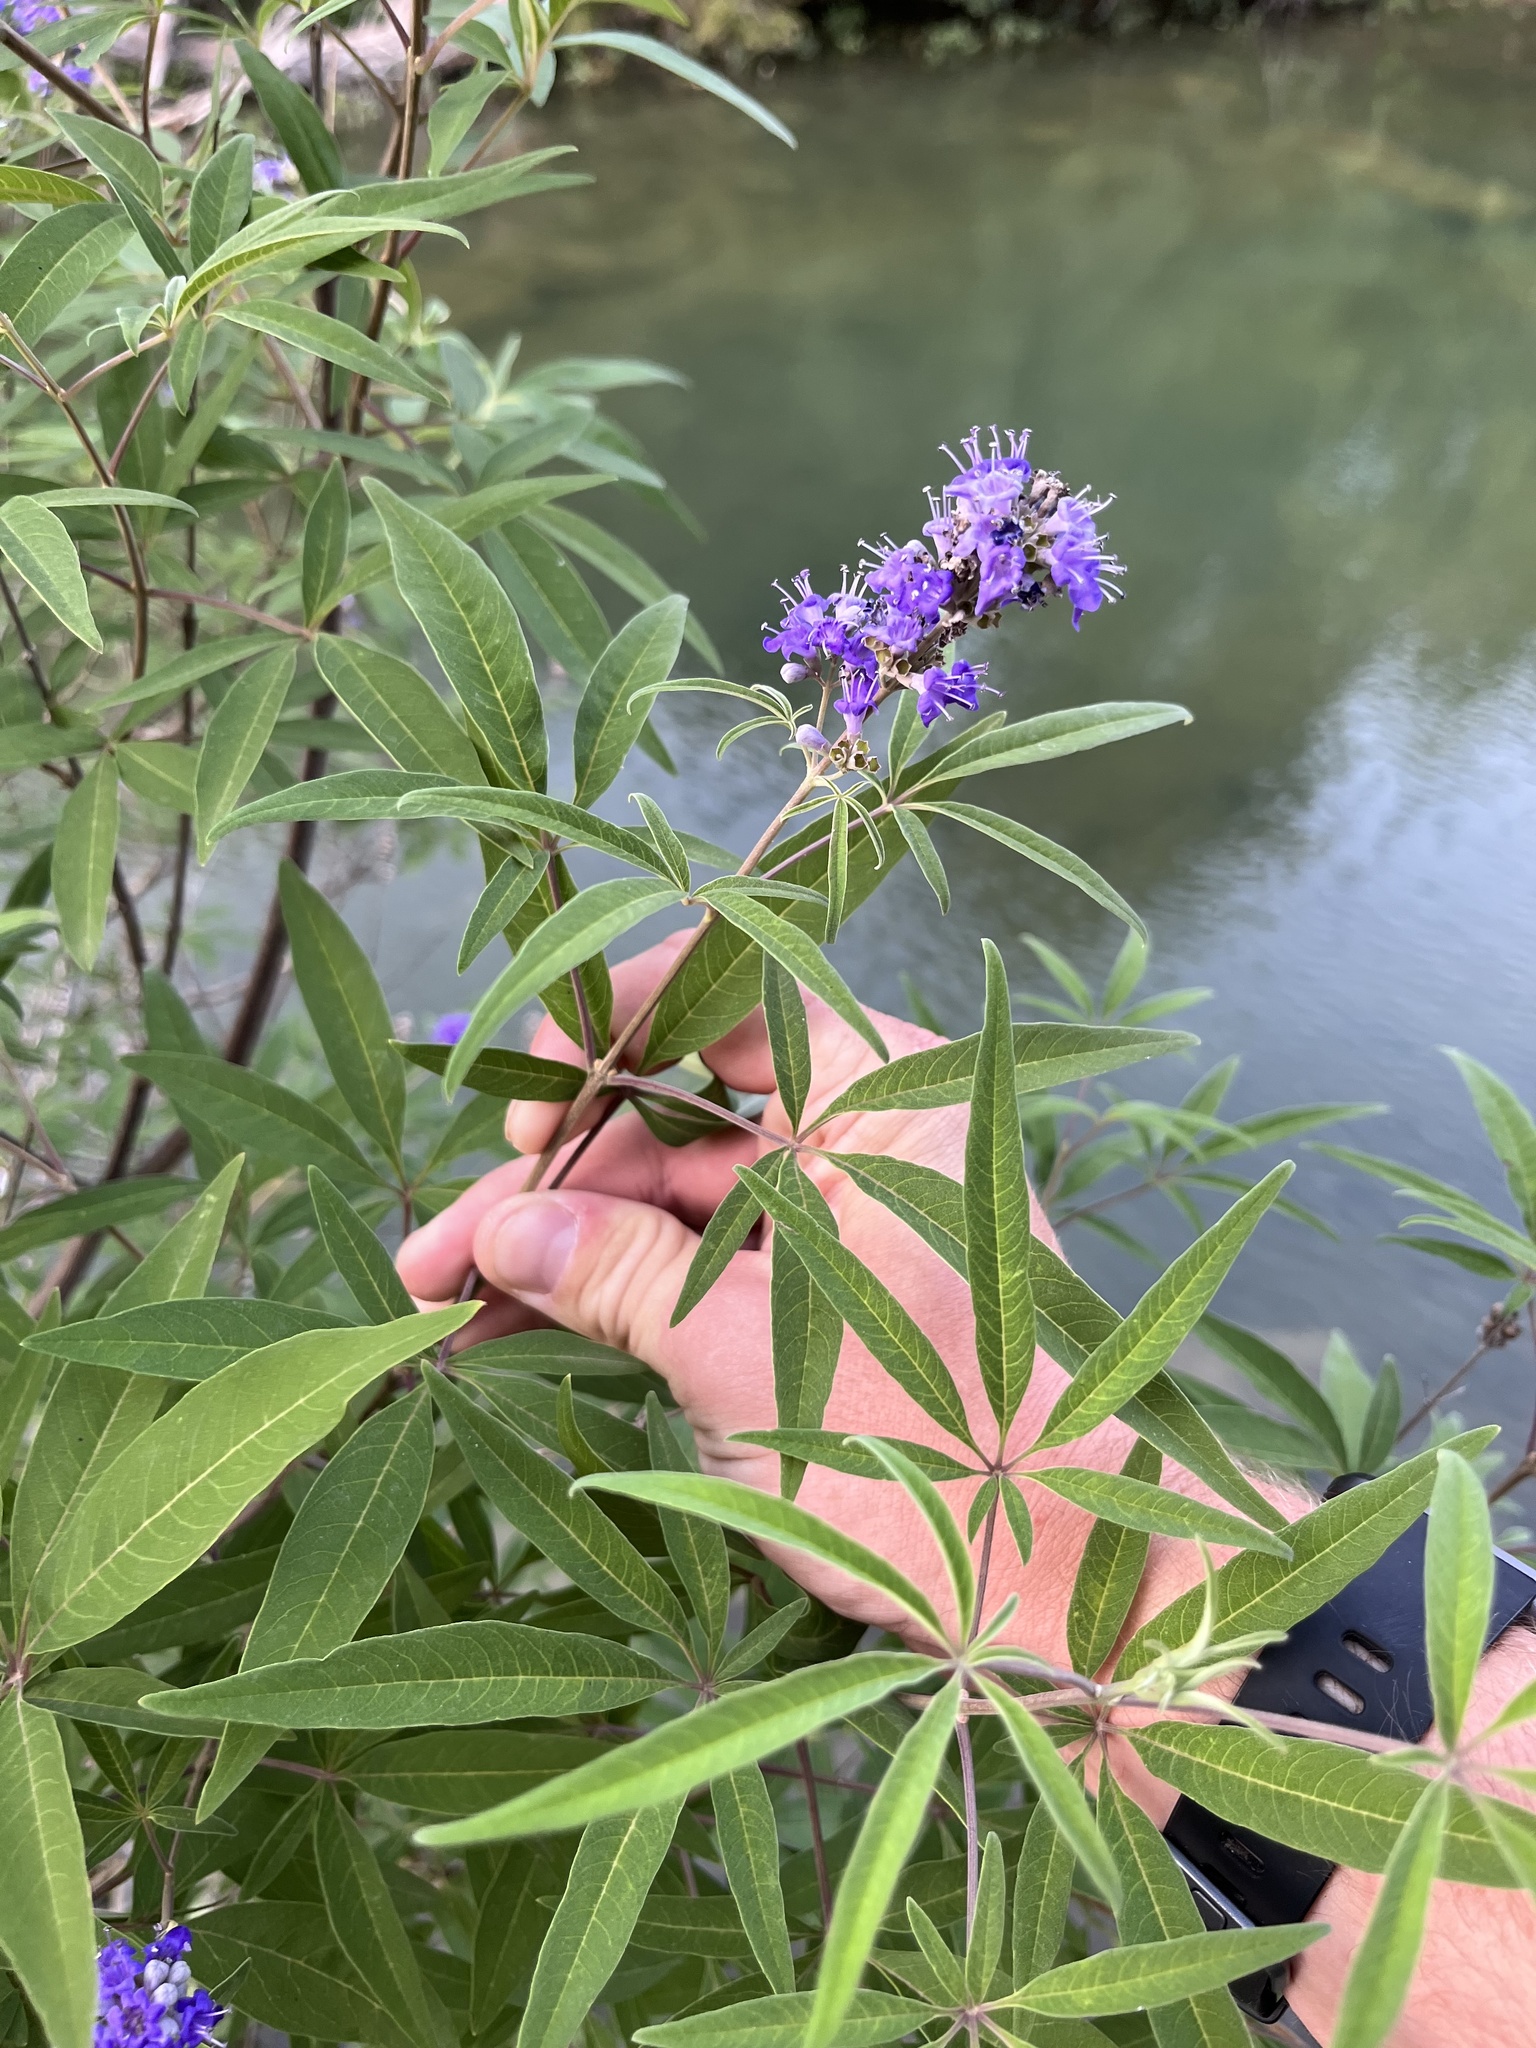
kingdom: Plantae
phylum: Tracheophyta
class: Magnoliopsida
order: Lamiales
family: Lamiaceae
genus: Vitex
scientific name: Vitex agnus-castus
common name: Chasteberry
